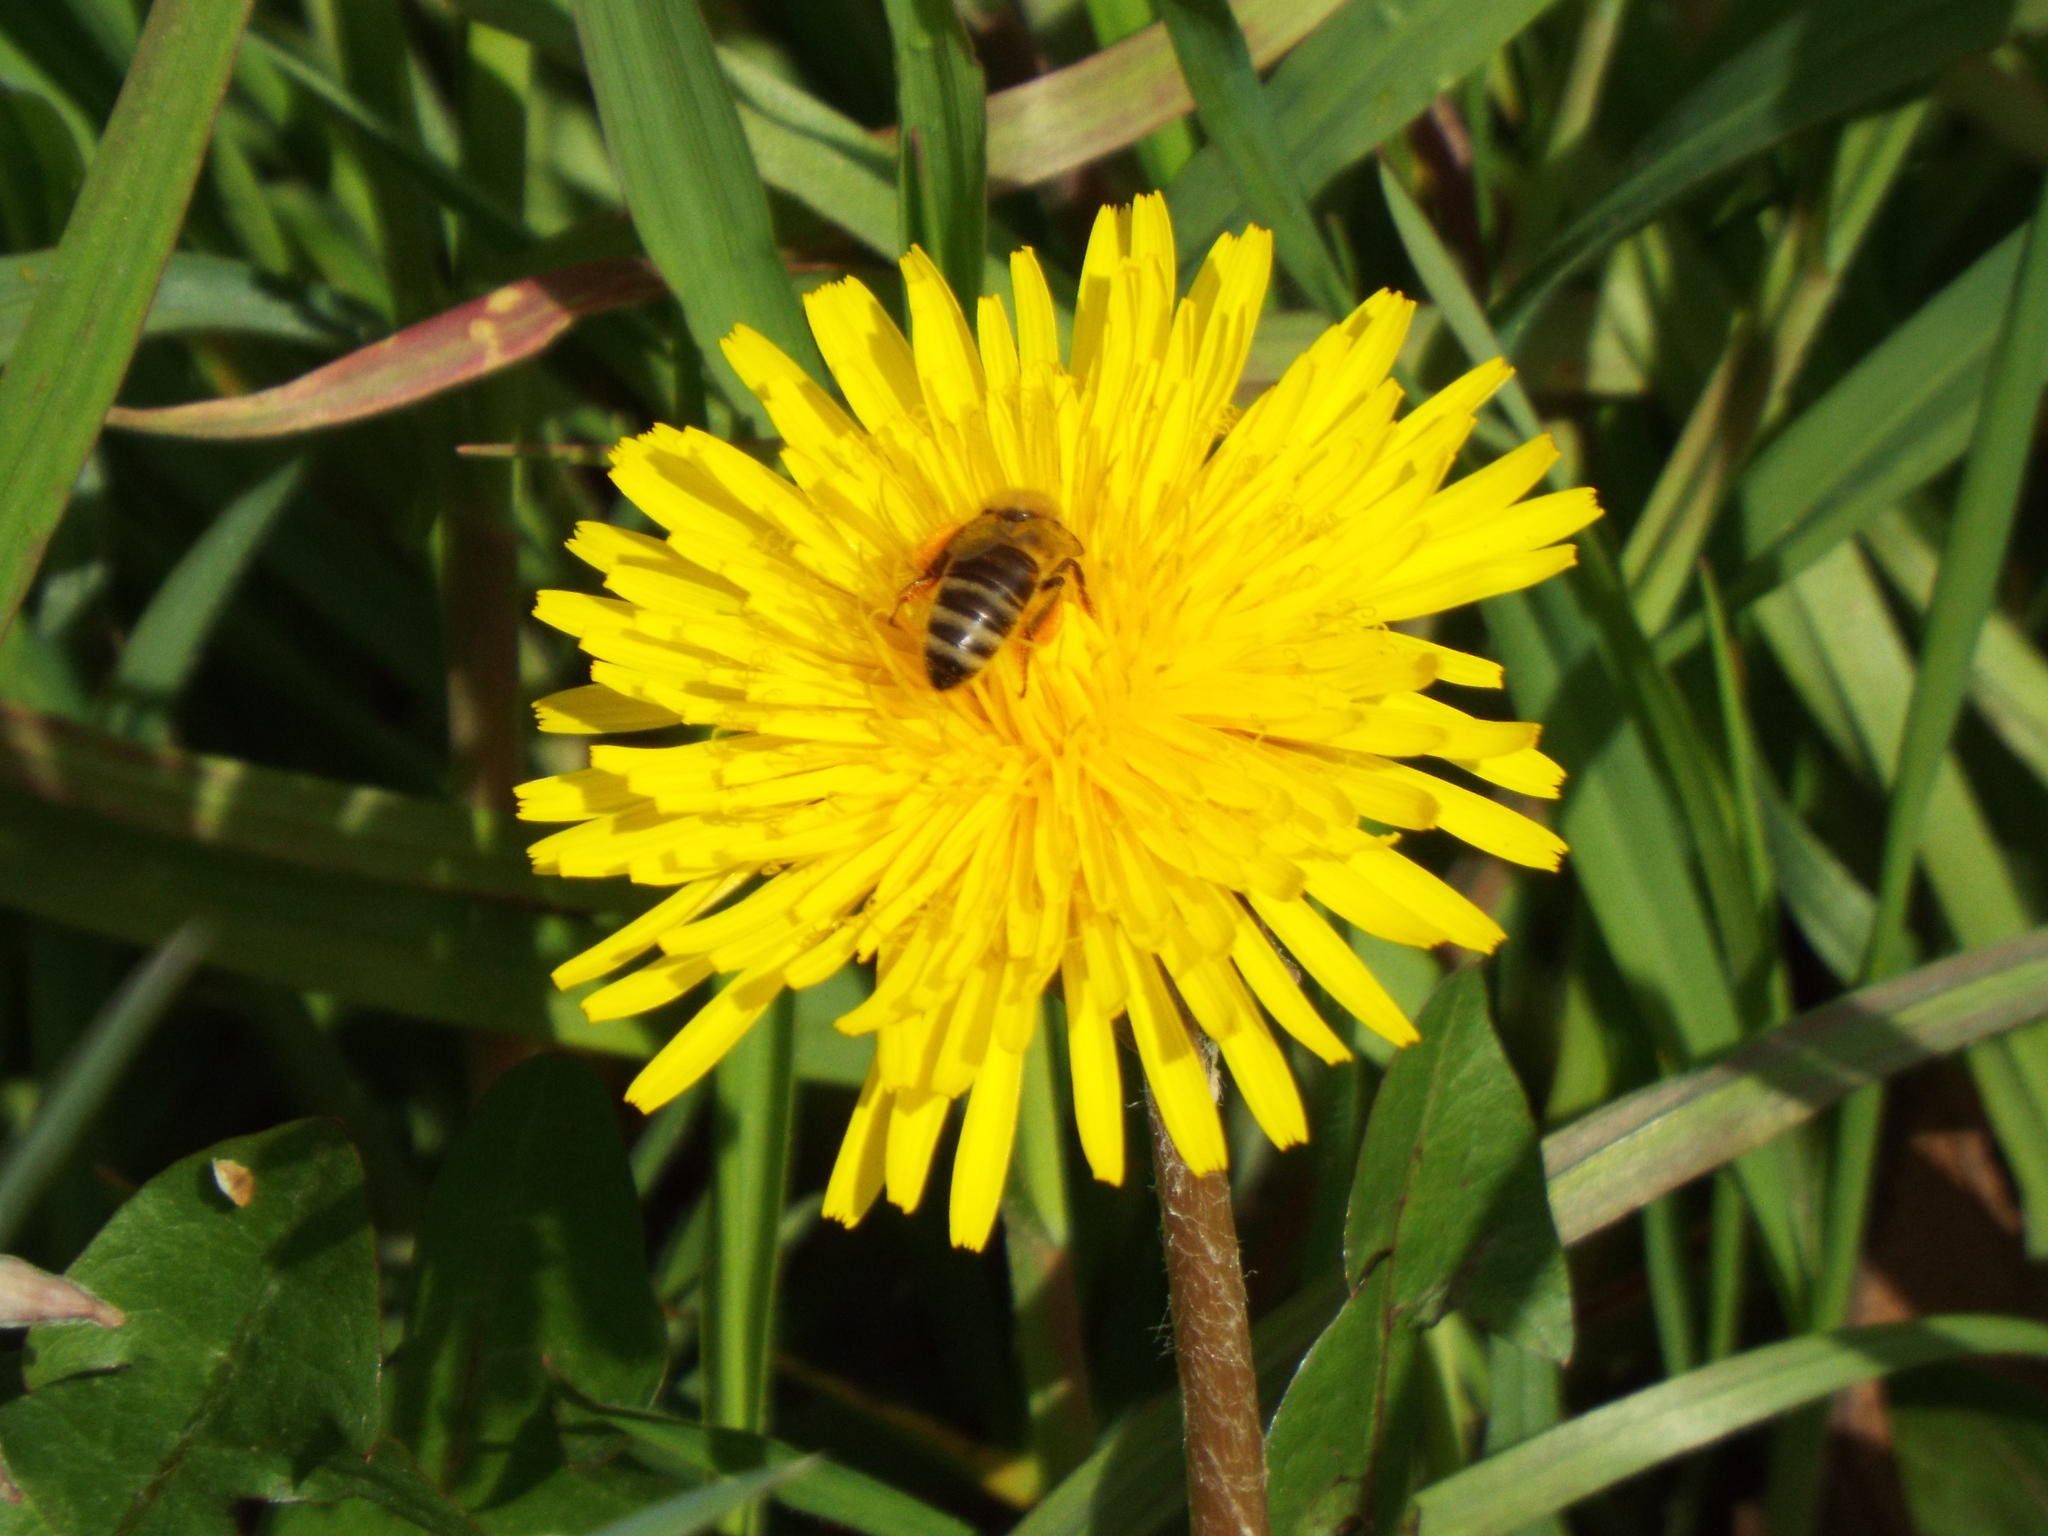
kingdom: Animalia
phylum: Arthropoda
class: Insecta
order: Hymenoptera
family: Apidae
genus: Apis
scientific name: Apis mellifera
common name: Honey bee
